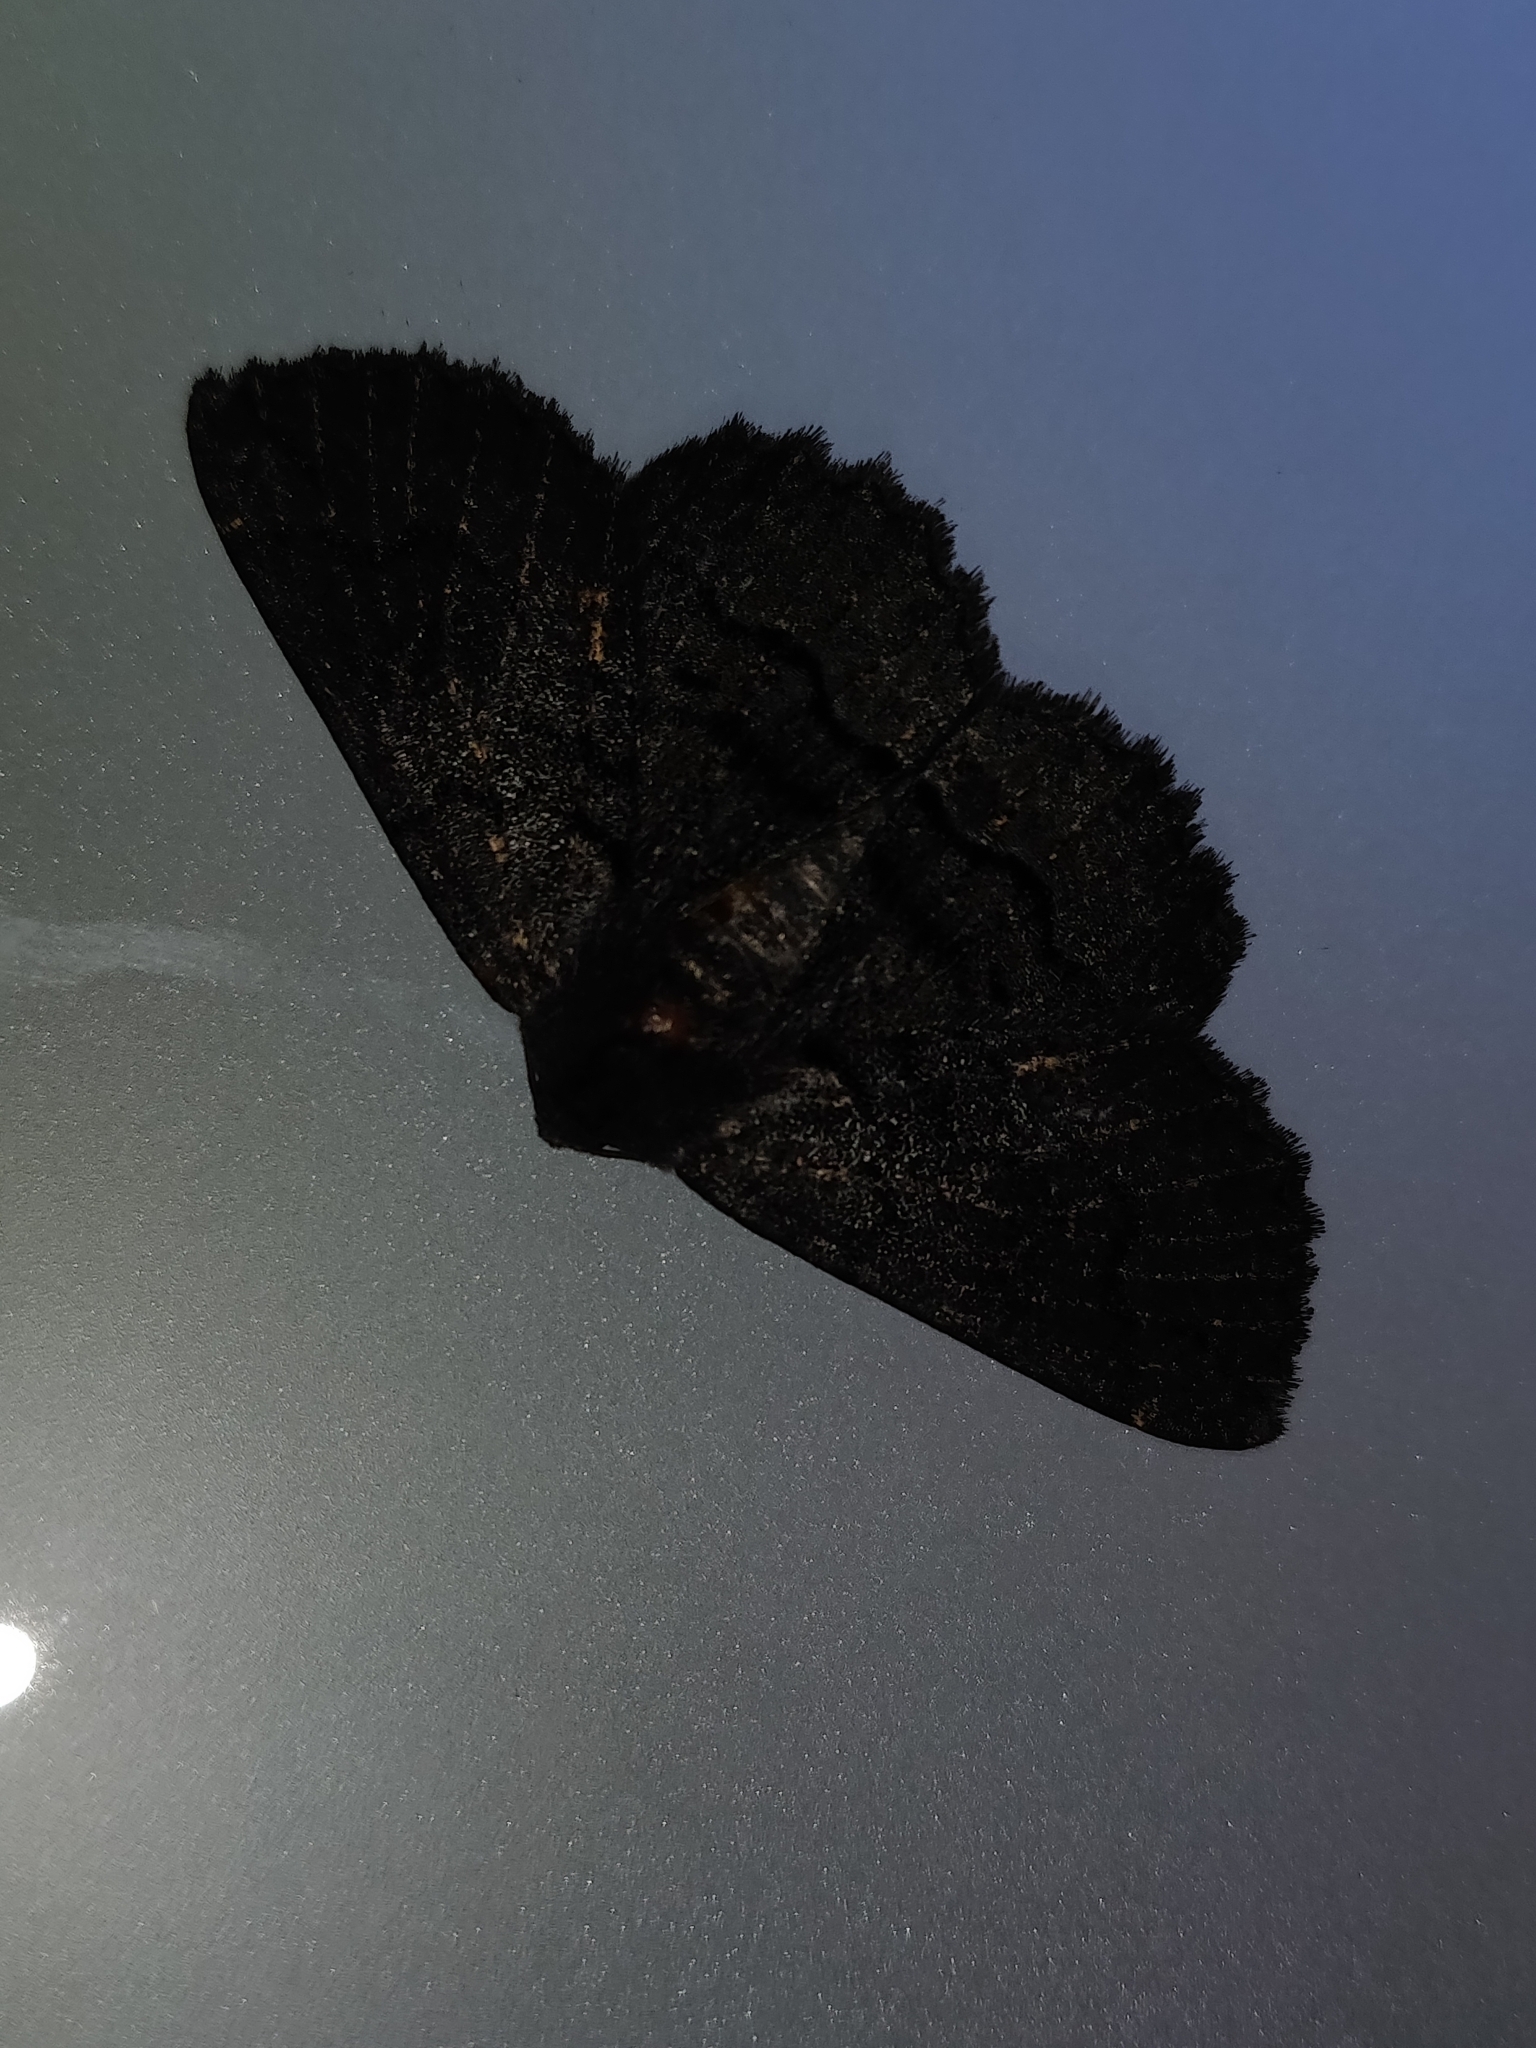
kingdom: Animalia
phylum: Arthropoda
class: Insecta
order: Lepidoptera
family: Geometridae
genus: Melanodes
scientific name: Melanodes anthracitaria
